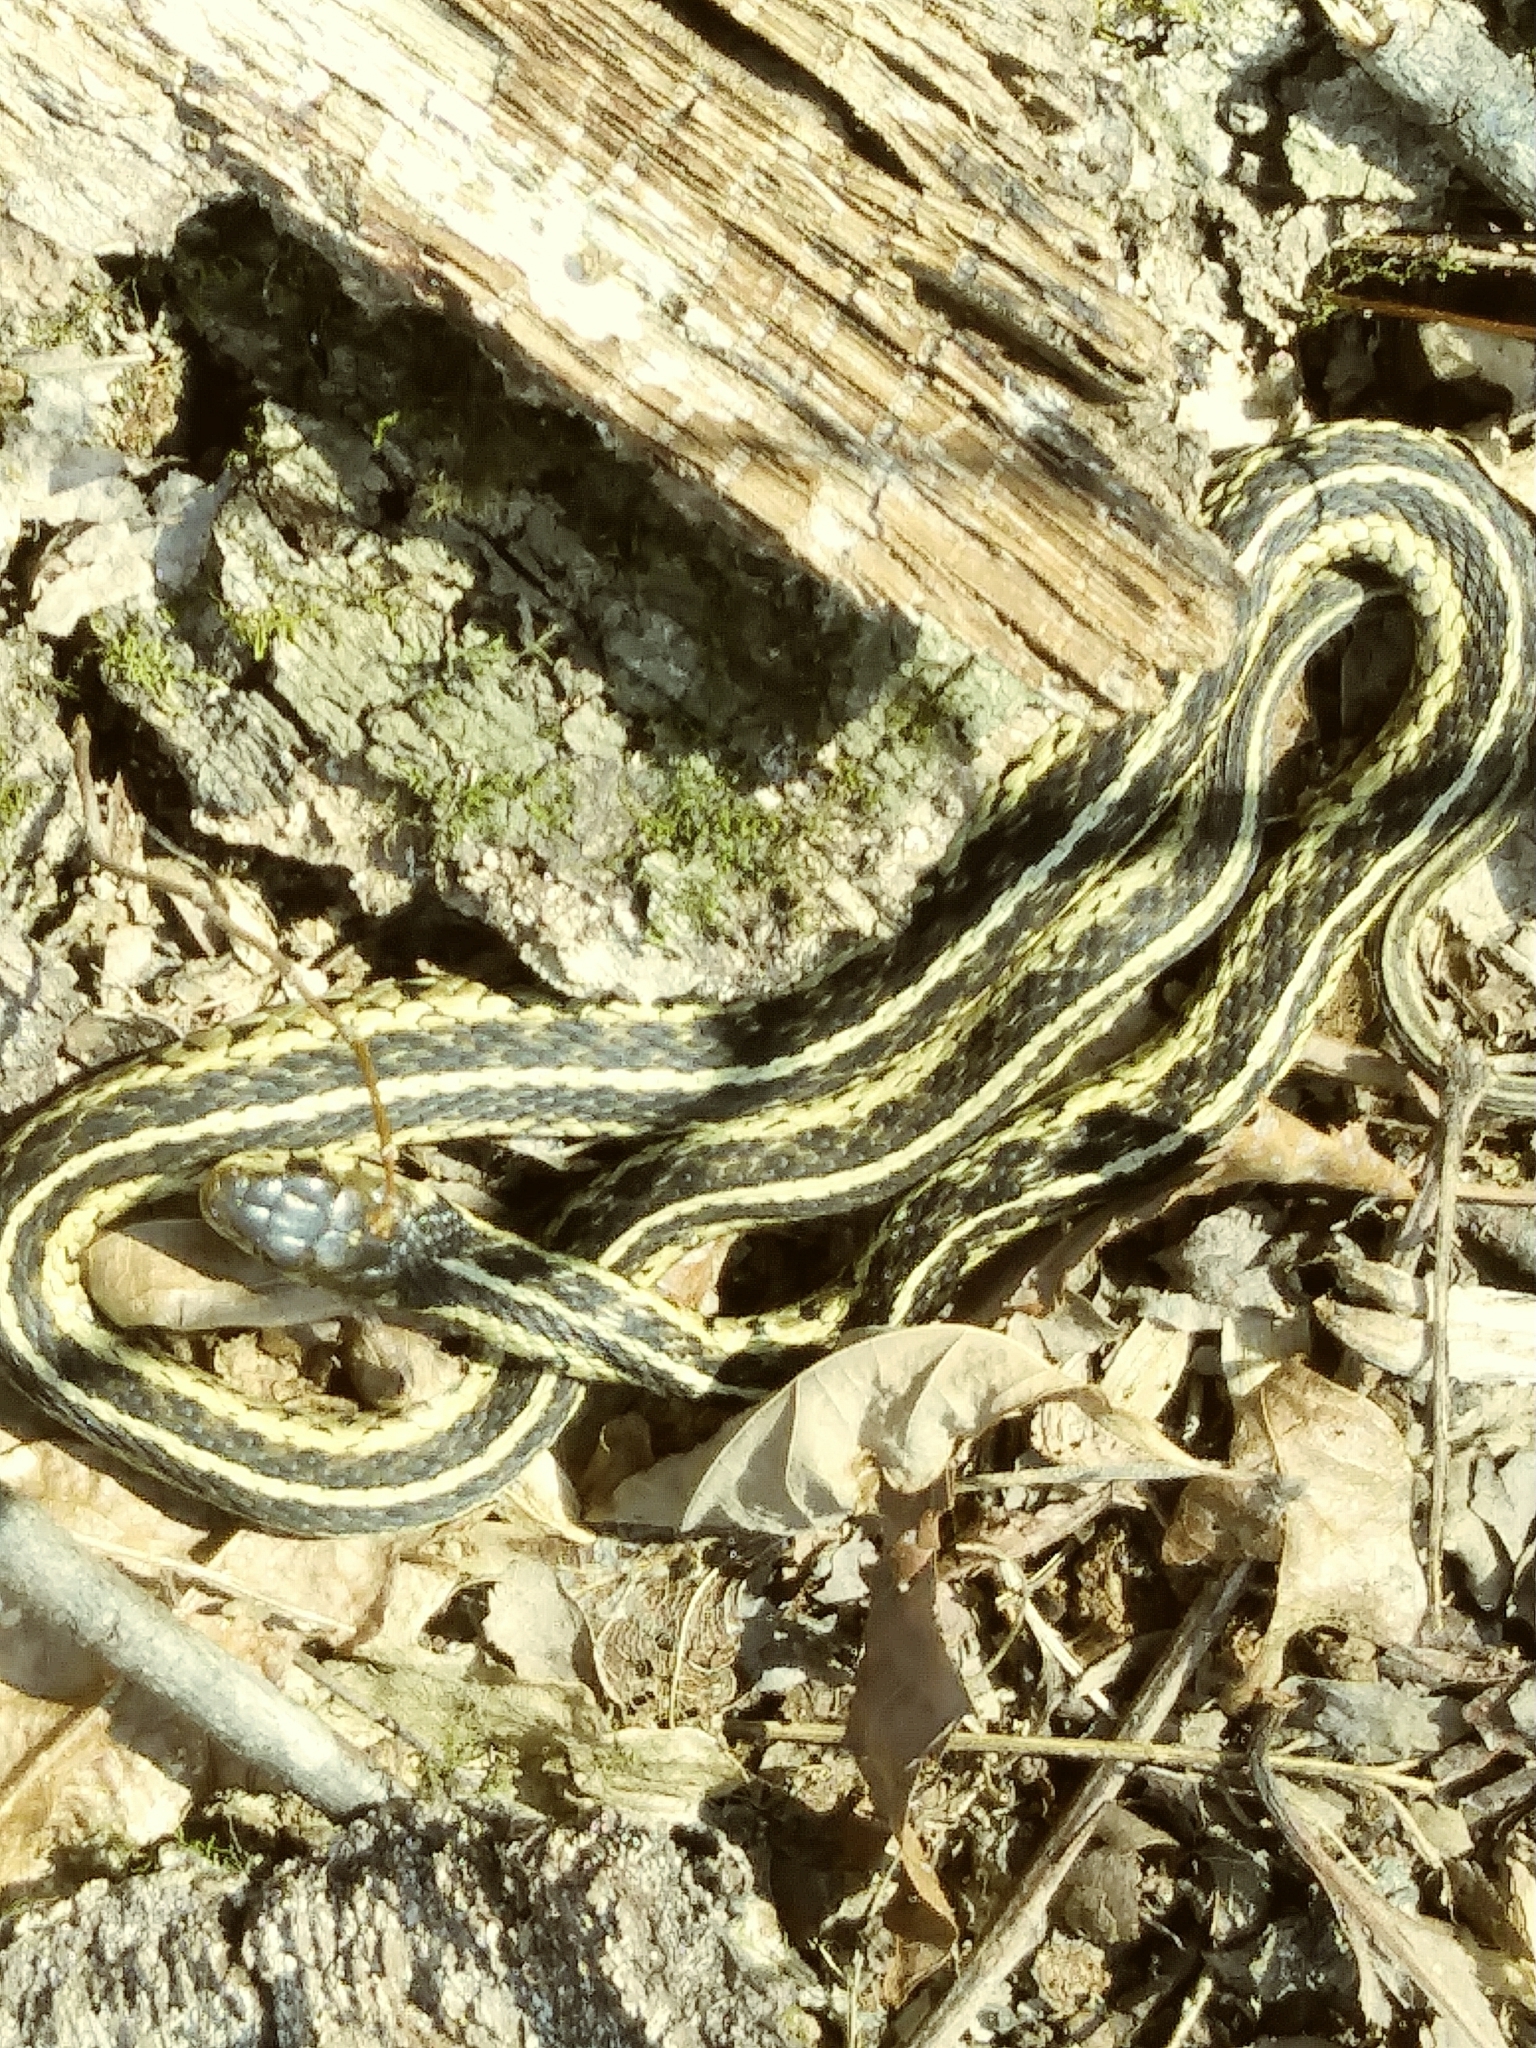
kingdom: Animalia
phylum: Chordata
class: Squamata
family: Colubridae
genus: Thamnophis
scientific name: Thamnophis sirtalis
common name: Common garter snake
